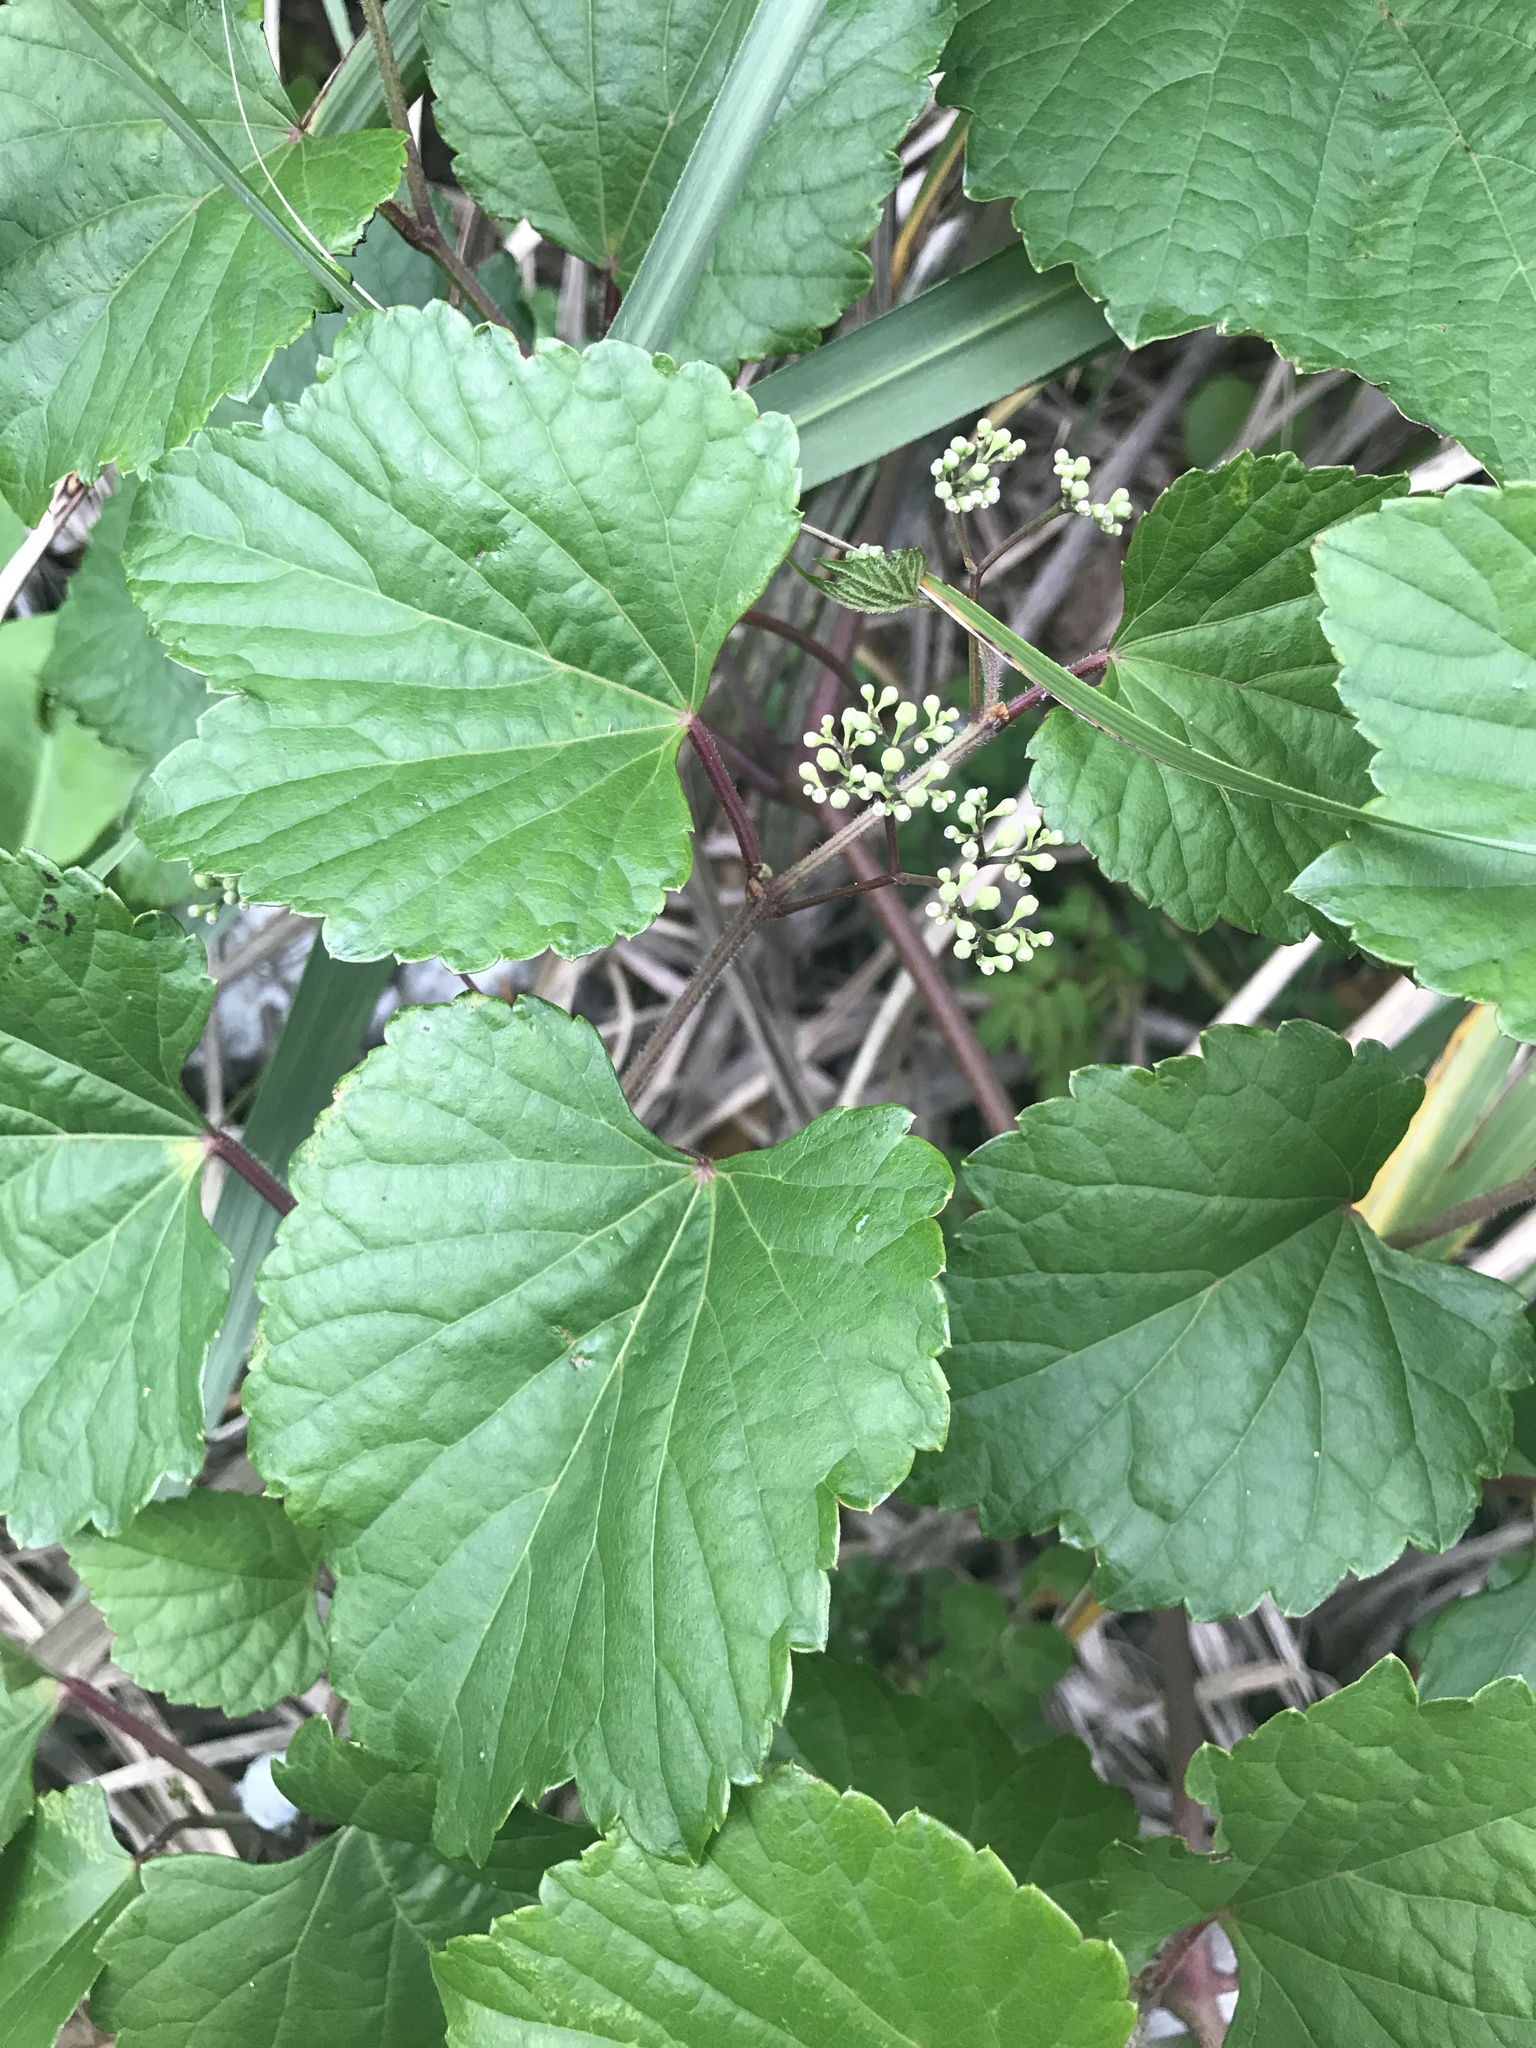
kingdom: Plantae
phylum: Tracheophyta
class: Magnoliopsida
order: Vitales
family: Vitaceae
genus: Ampelopsis
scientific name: Ampelopsis glandulosa
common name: Amur peppervine
